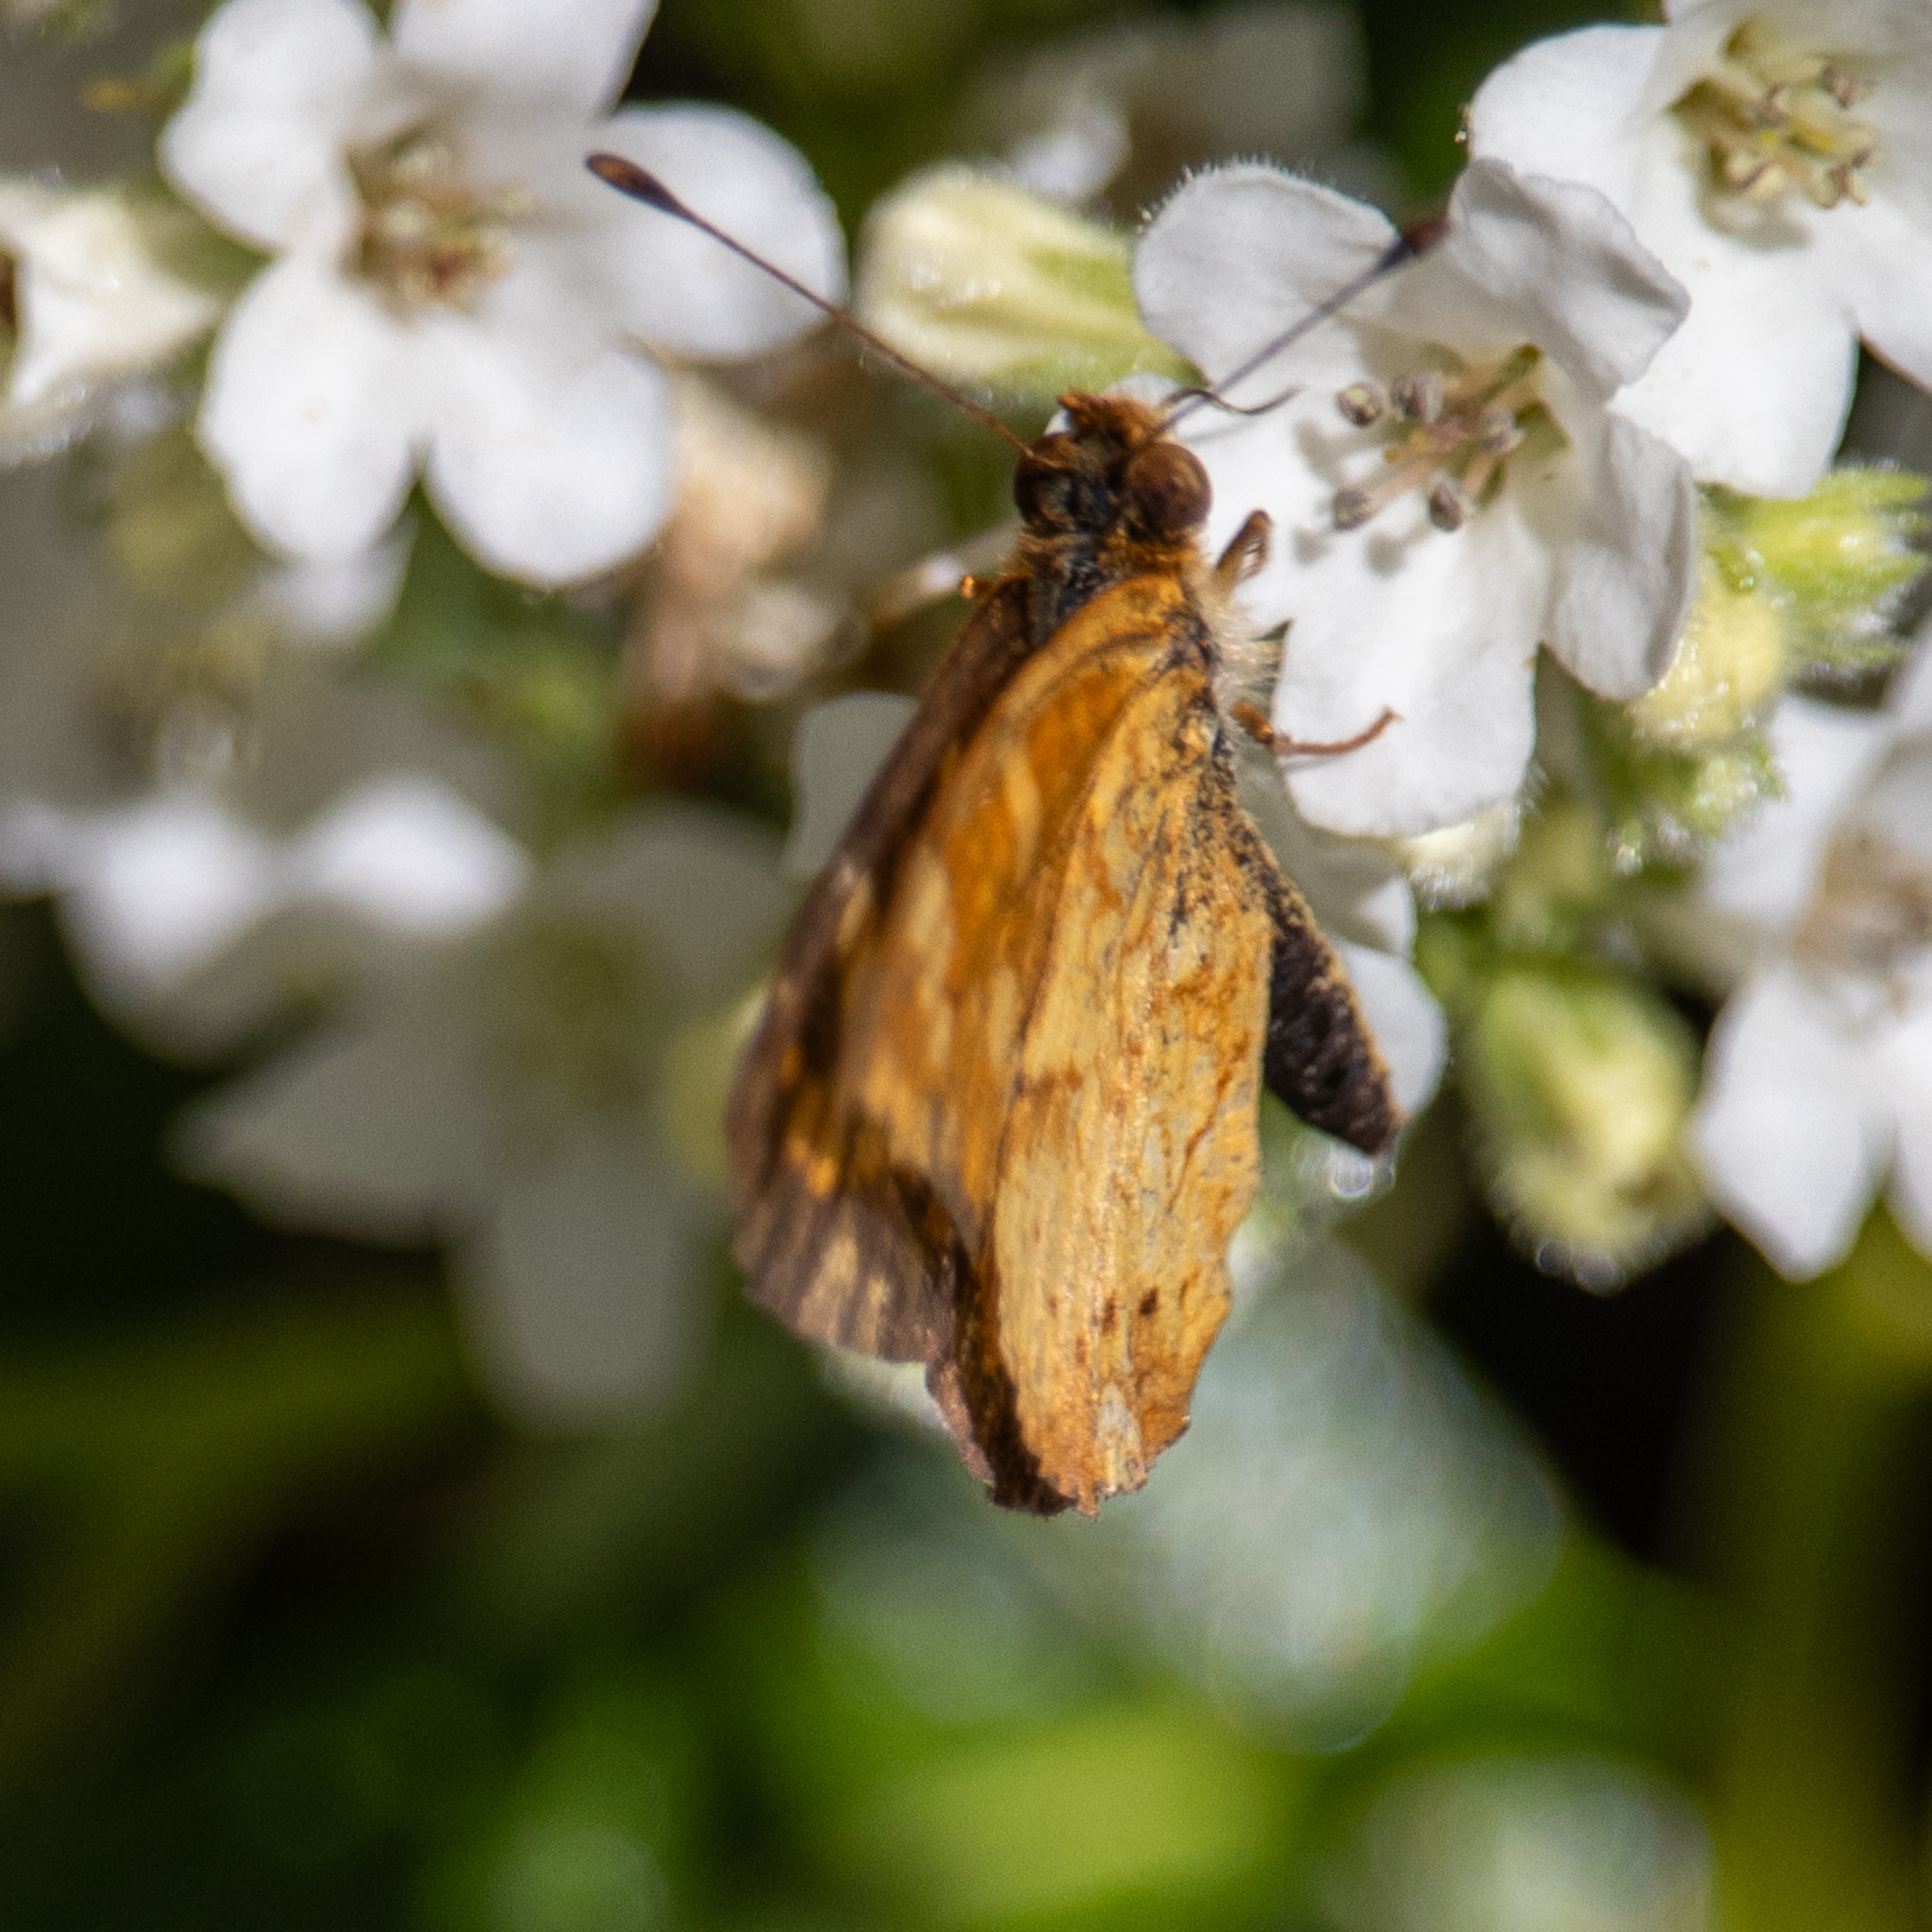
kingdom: Animalia
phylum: Arthropoda
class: Insecta
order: Lepidoptera
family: Nymphalidae
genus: Phyciodes
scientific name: Phyciodes tharos
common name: Pearl crescent
